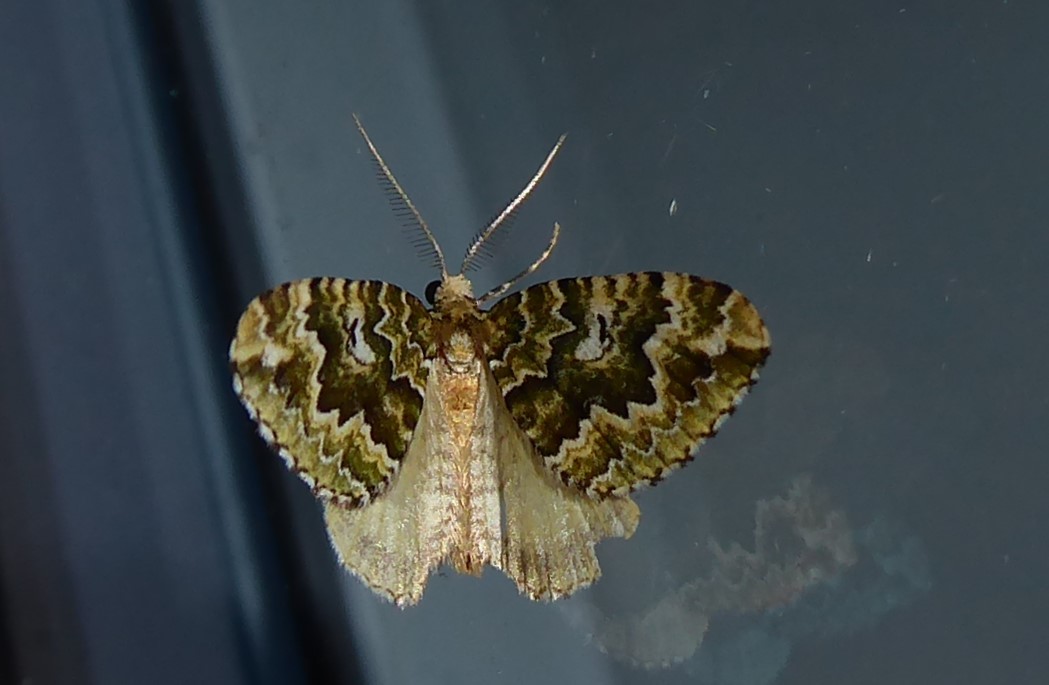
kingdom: Animalia
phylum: Arthropoda
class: Insecta
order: Lepidoptera
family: Geometridae
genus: Asaphodes
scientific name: Asaphodes beata
